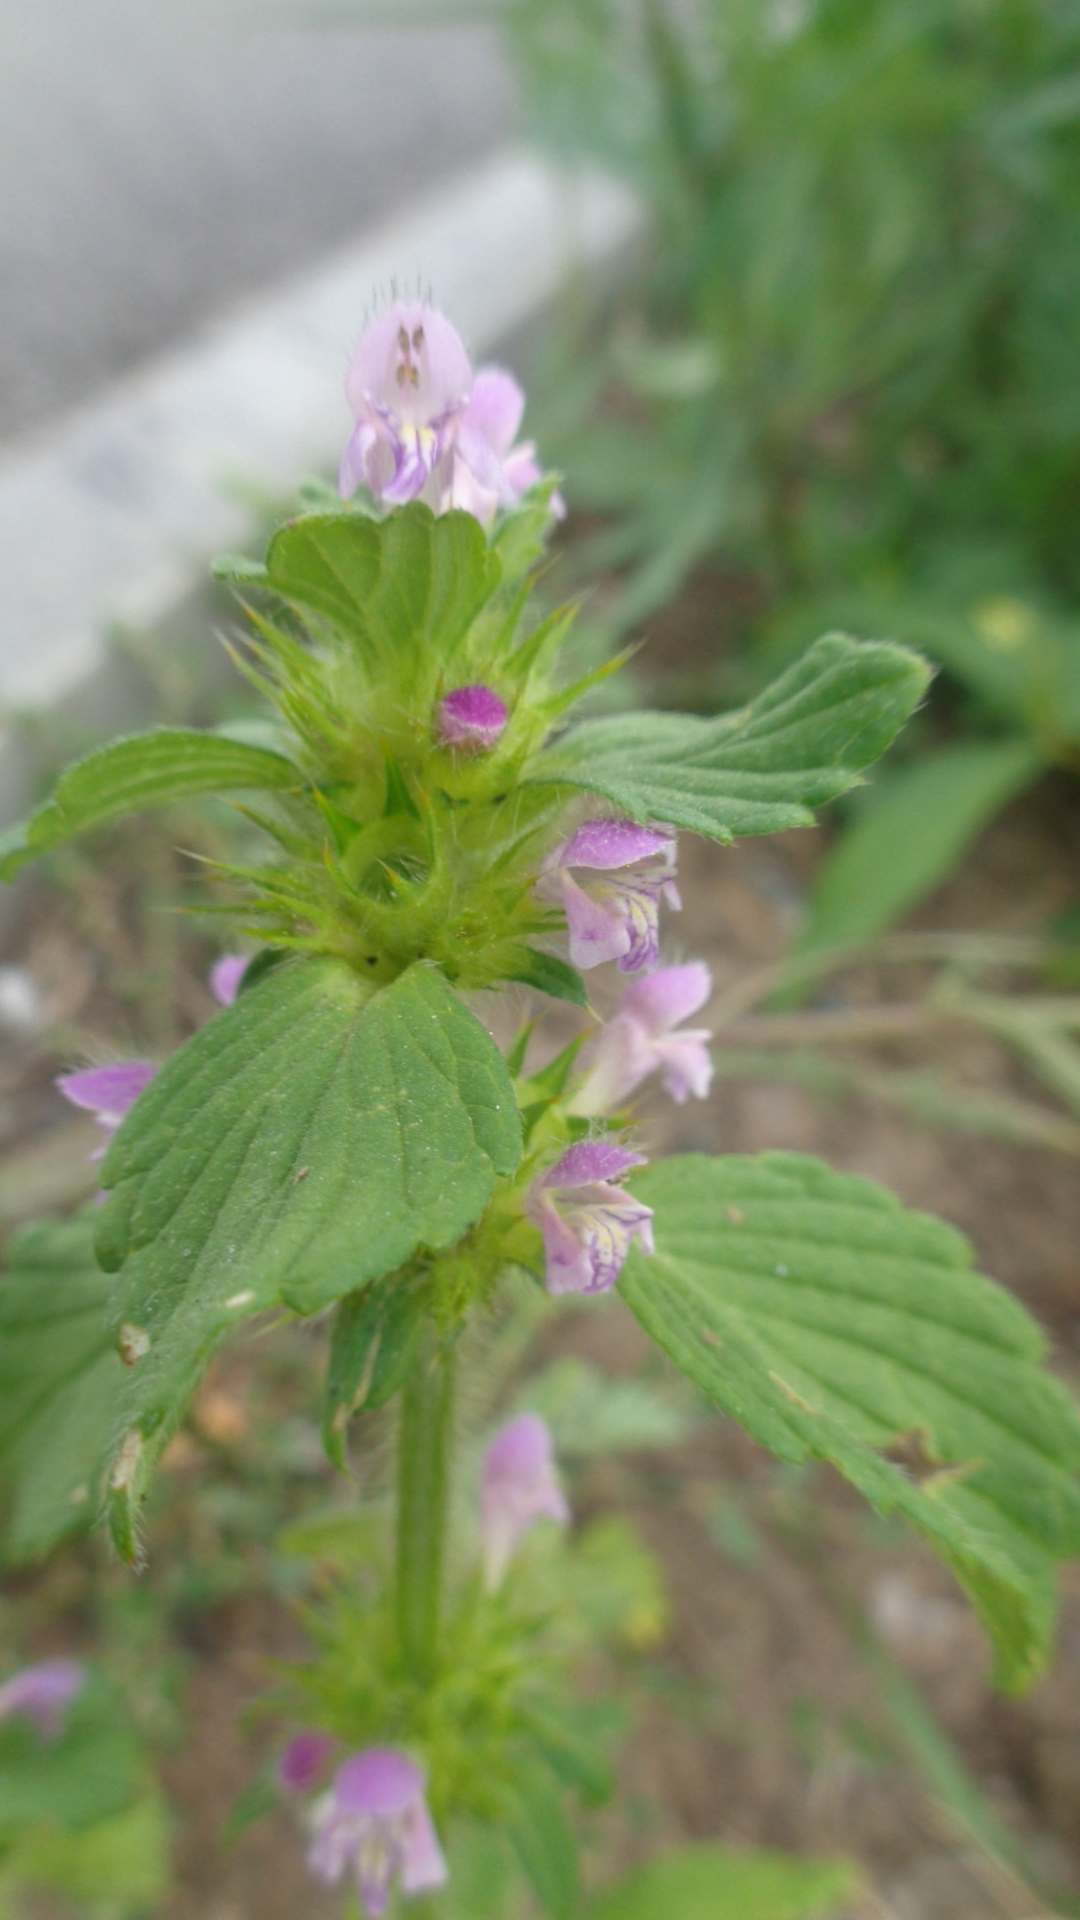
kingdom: Plantae
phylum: Tracheophyta
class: Magnoliopsida
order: Lamiales
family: Lamiaceae
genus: Galeopsis
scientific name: Galeopsis bifida
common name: Bifid hemp-nettle
